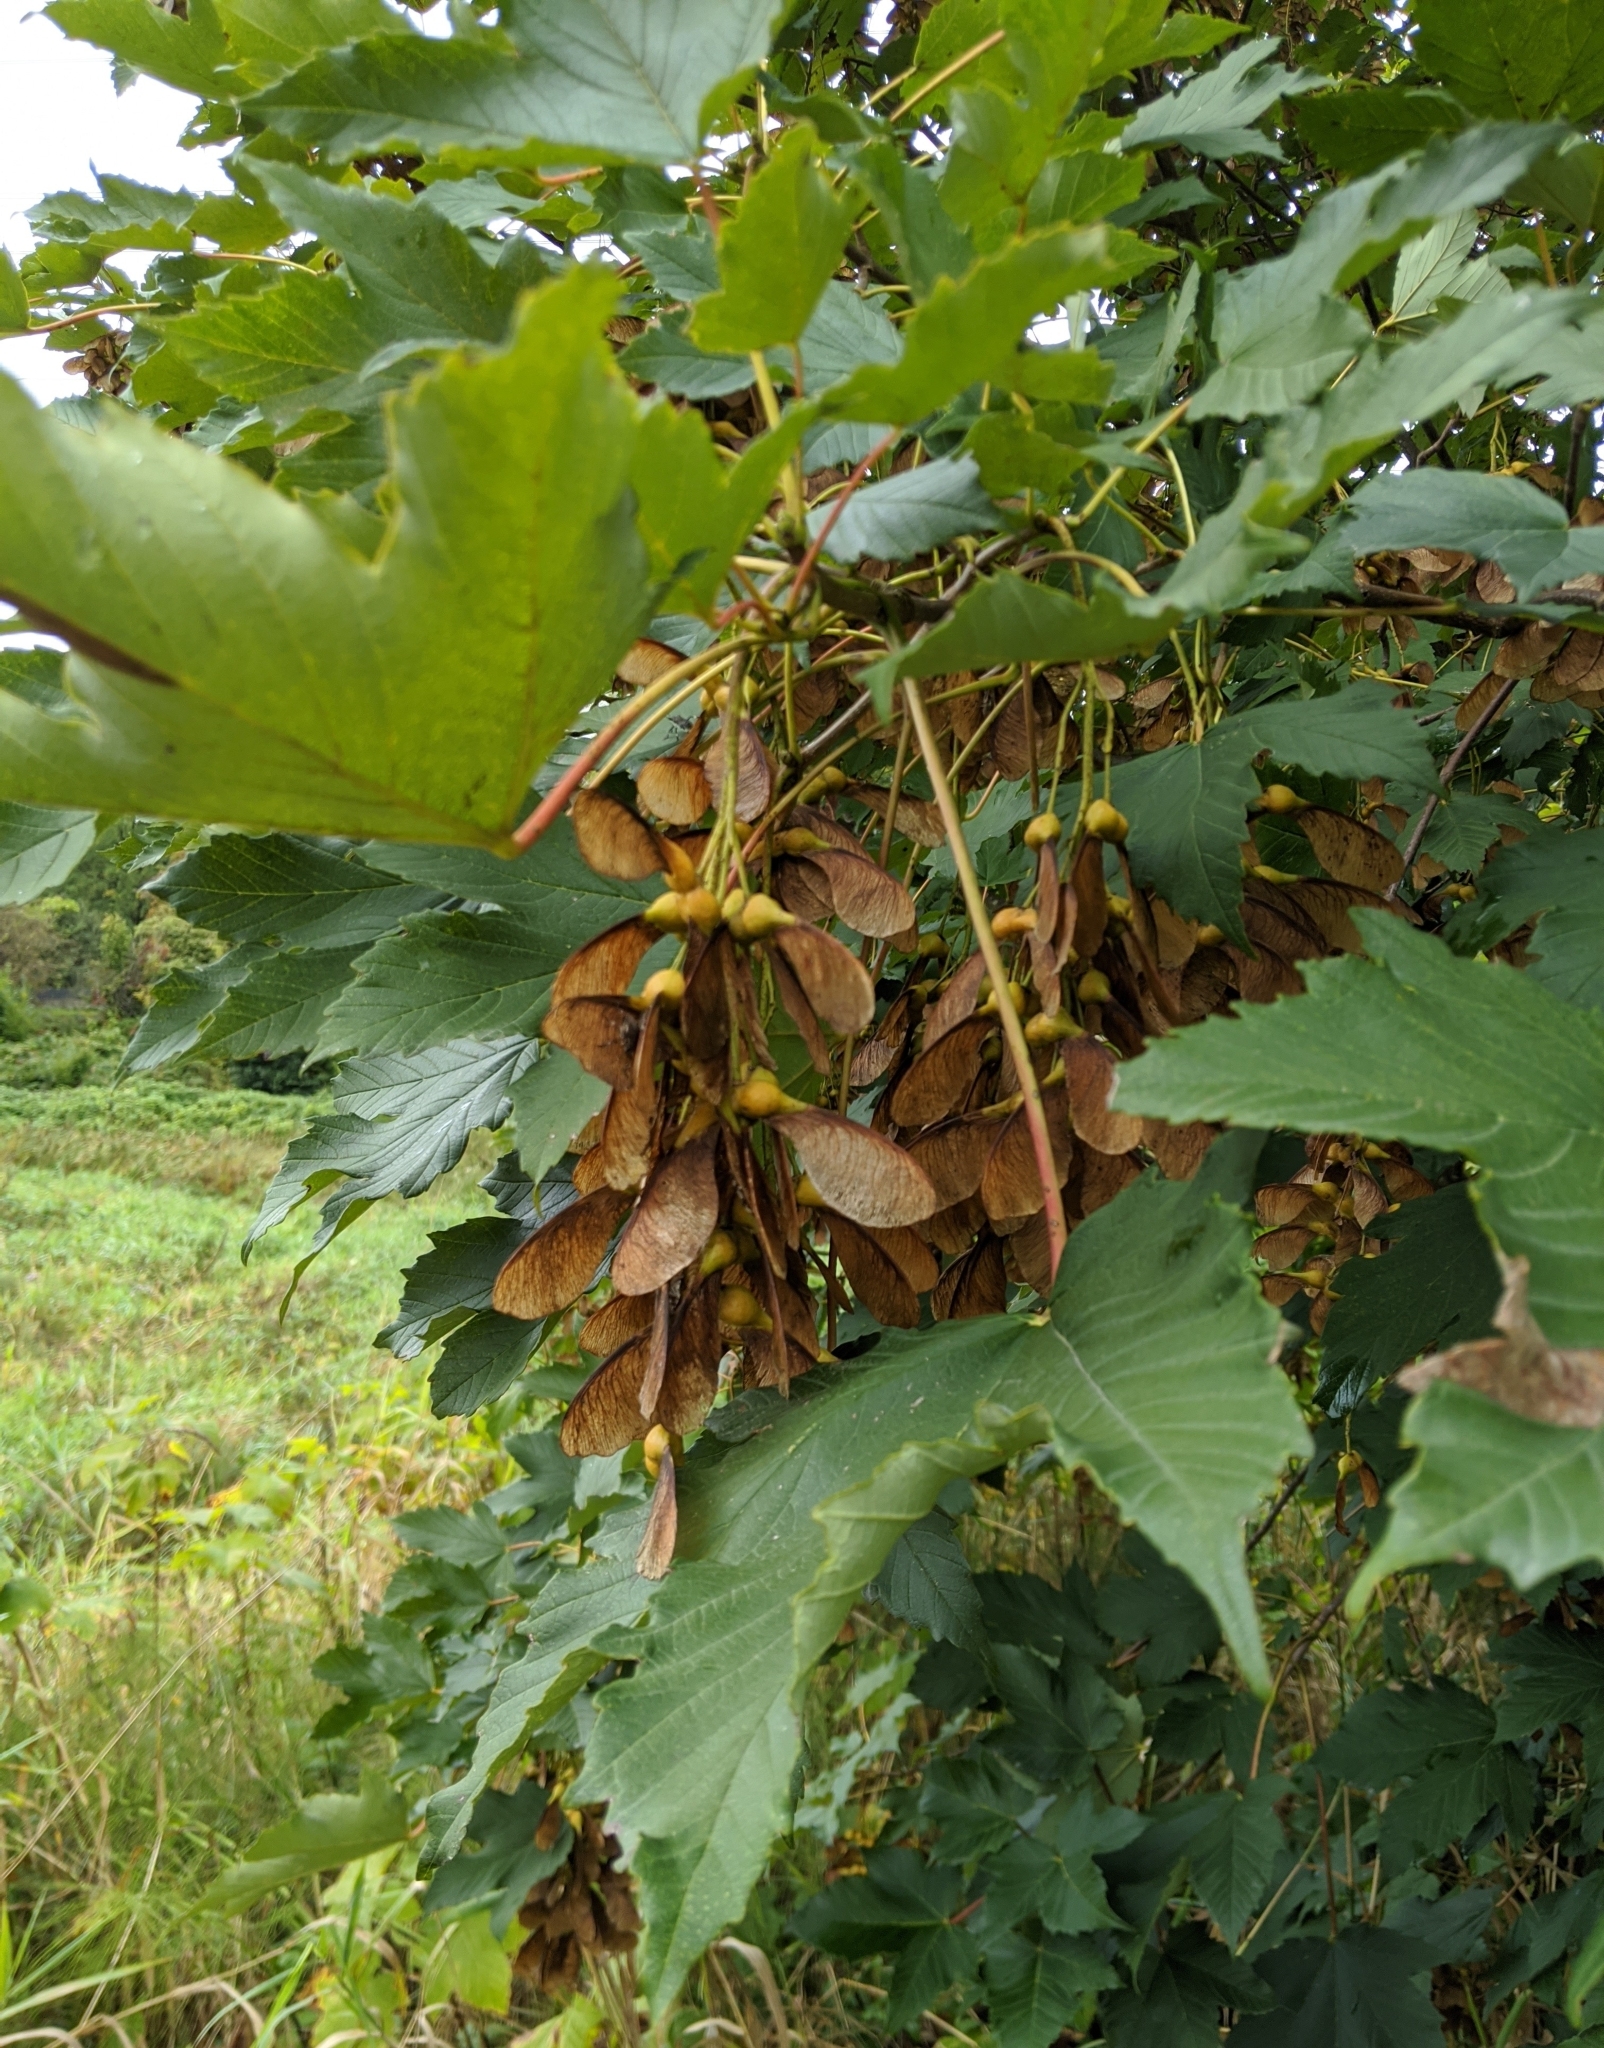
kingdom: Plantae
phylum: Tracheophyta
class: Magnoliopsida
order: Sapindales
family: Sapindaceae
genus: Acer
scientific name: Acer pseudoplatanus
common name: Sycamore
